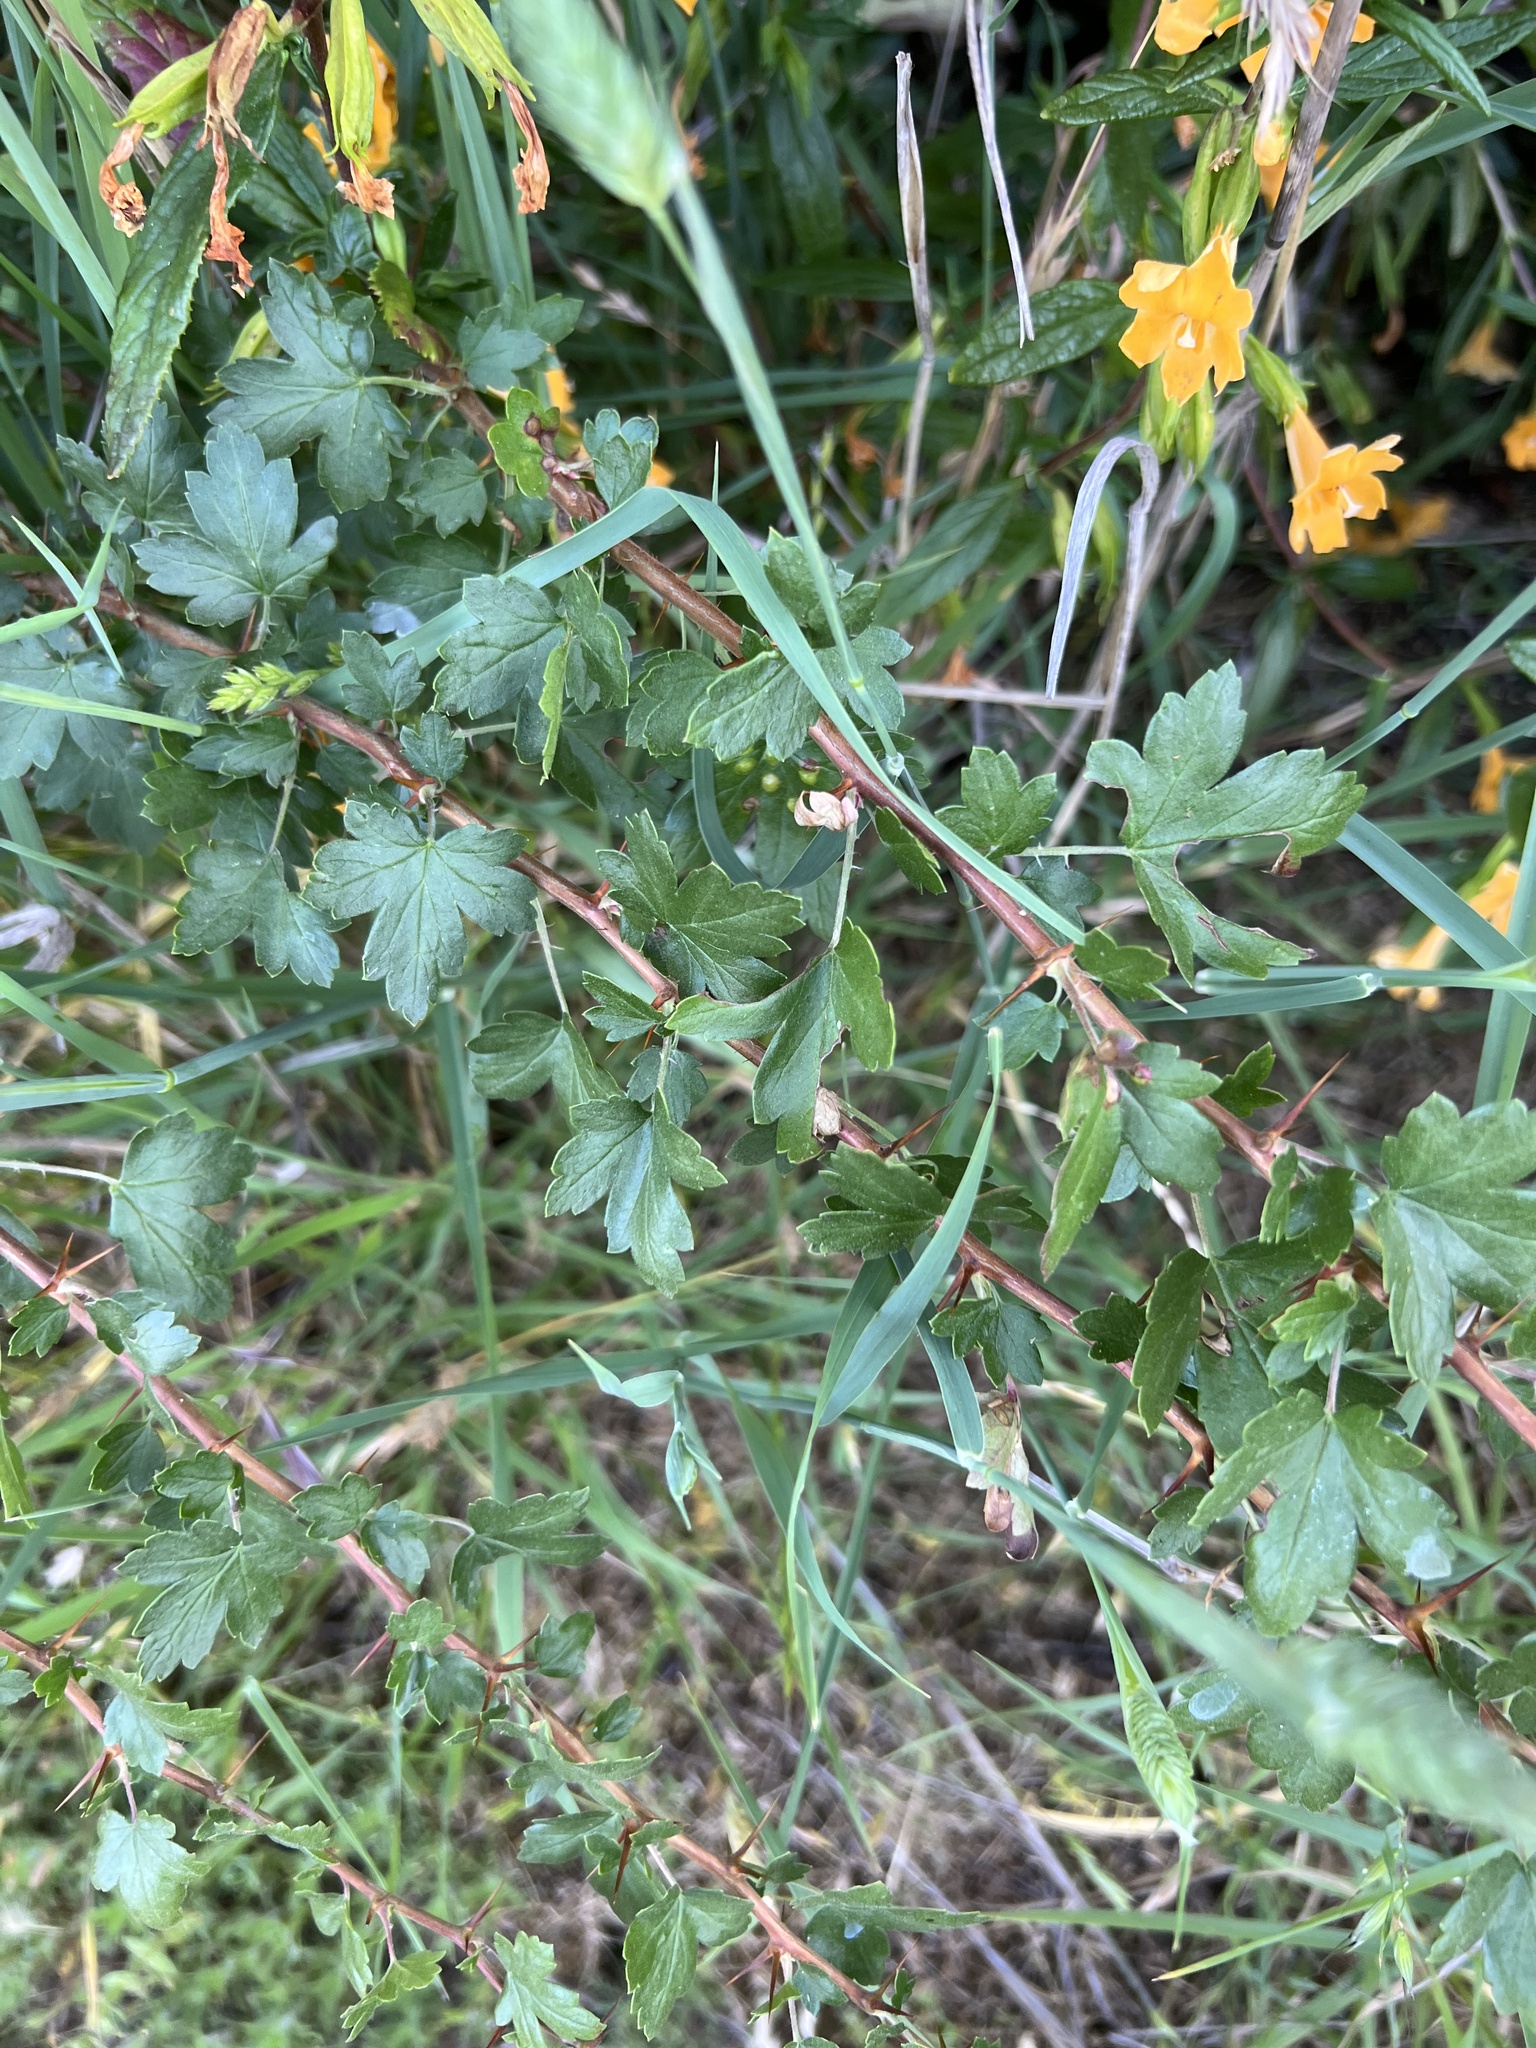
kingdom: Plantae
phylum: Tracheophyta
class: Magnoliopsida
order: Saxifragales
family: Grossulariaceae
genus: Ribes
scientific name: Ribes californicum
